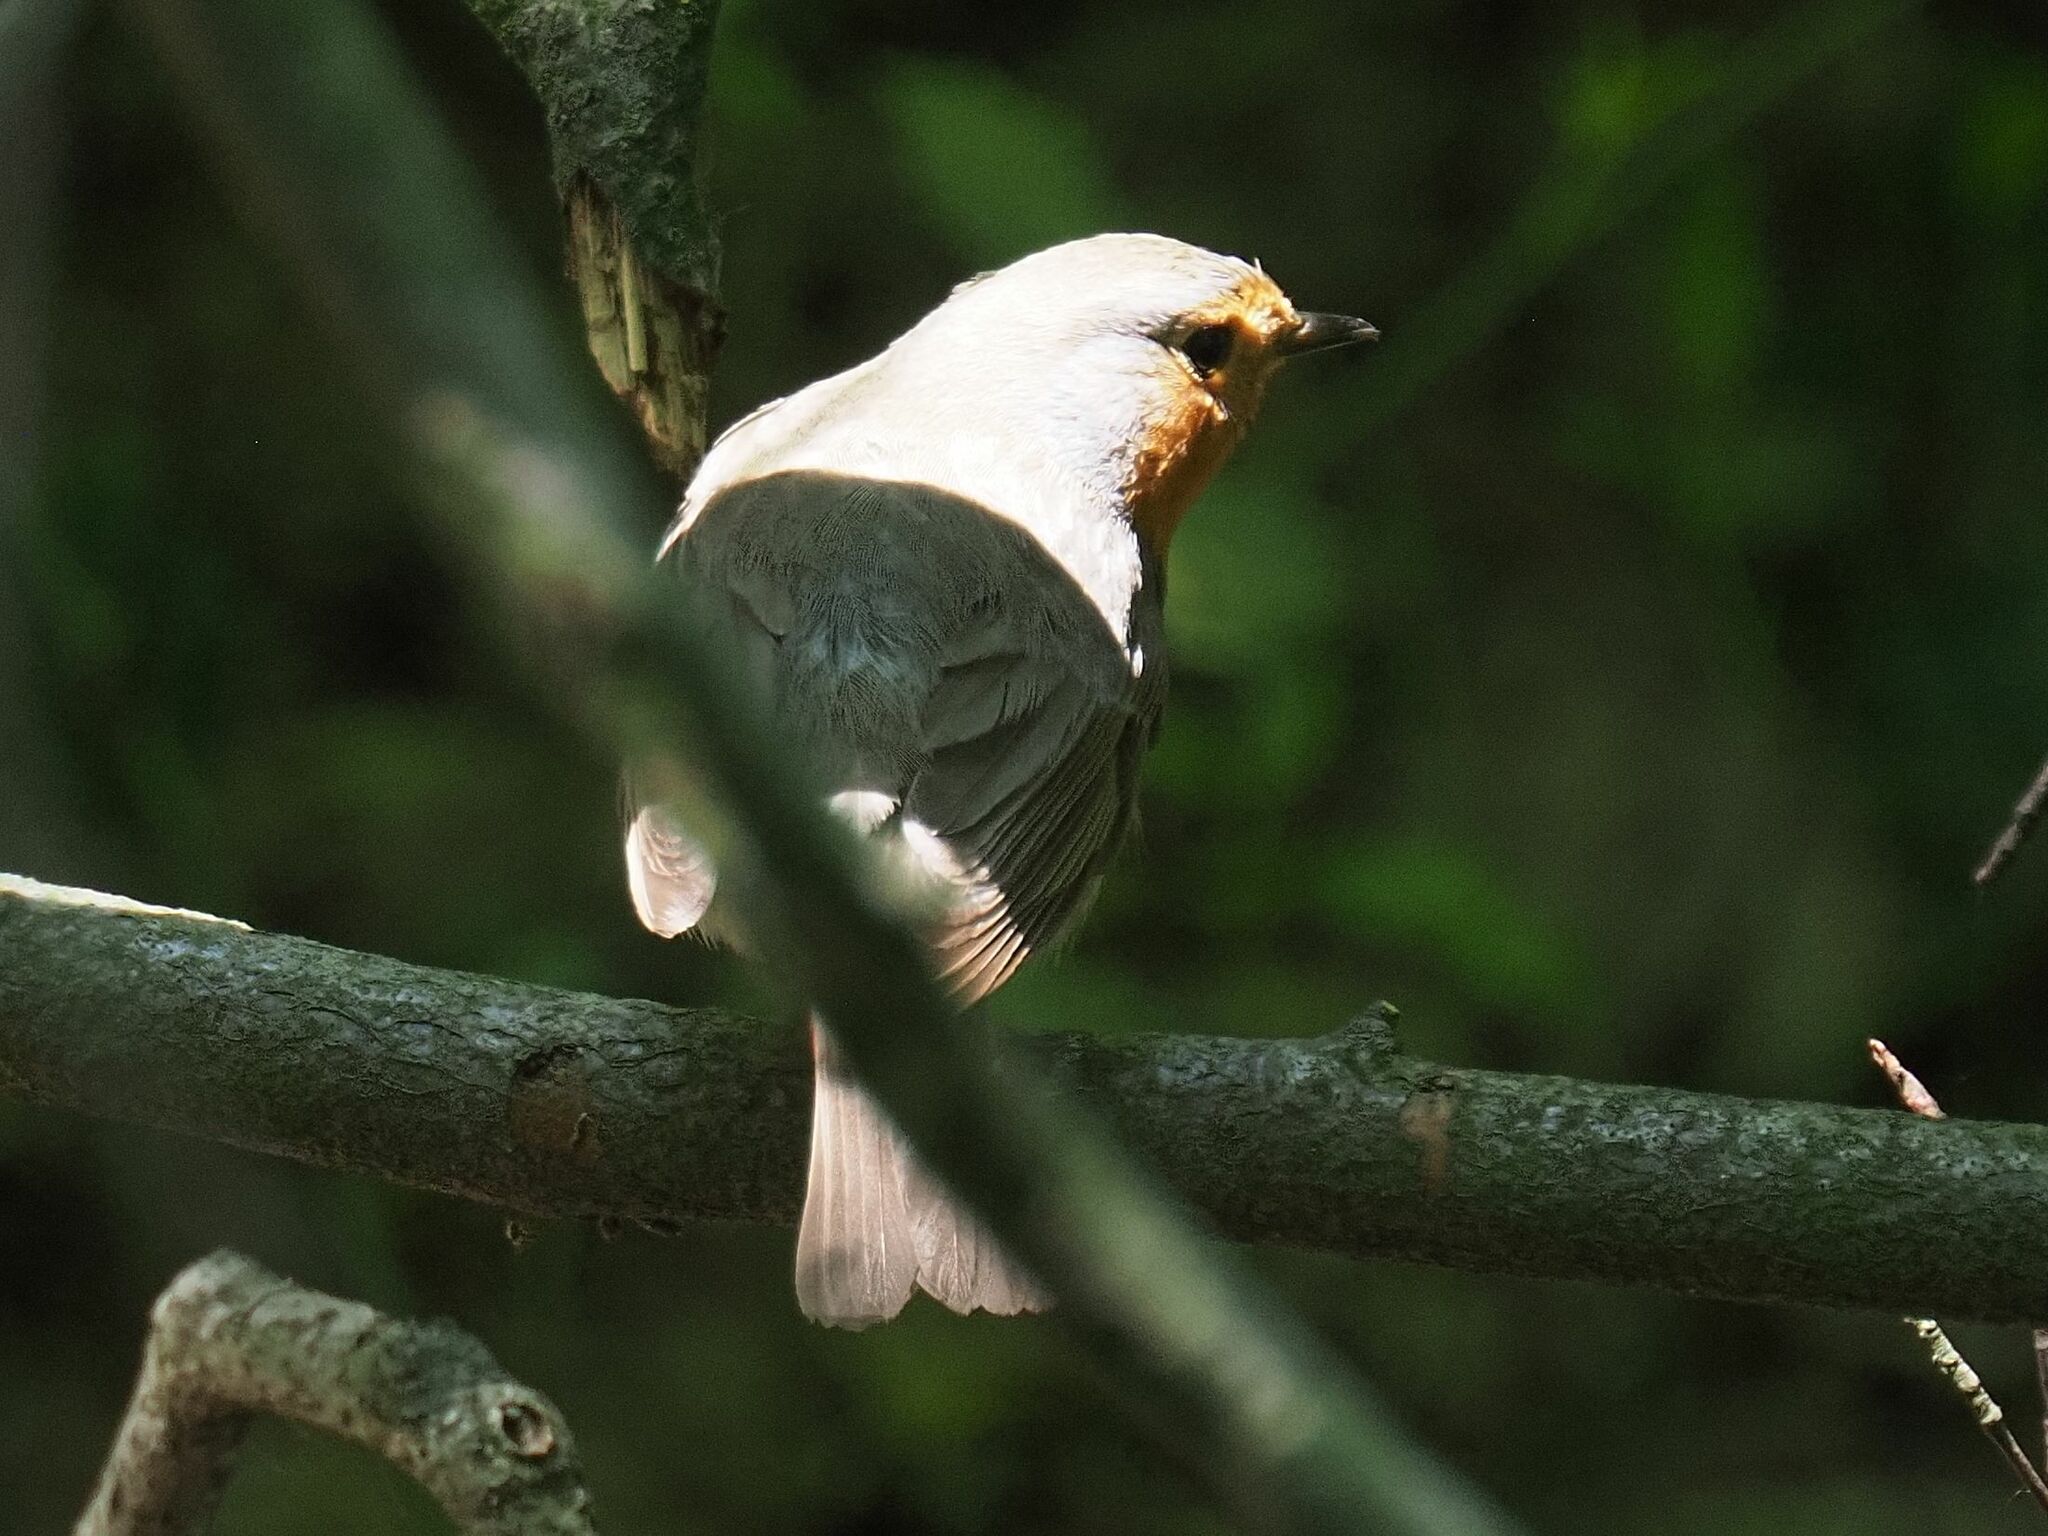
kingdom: Animalia
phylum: Chordata
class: Aves
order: Passeriformes
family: Muscicapidae
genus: Erithacus
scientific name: Erithacus rubecula
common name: European robin
